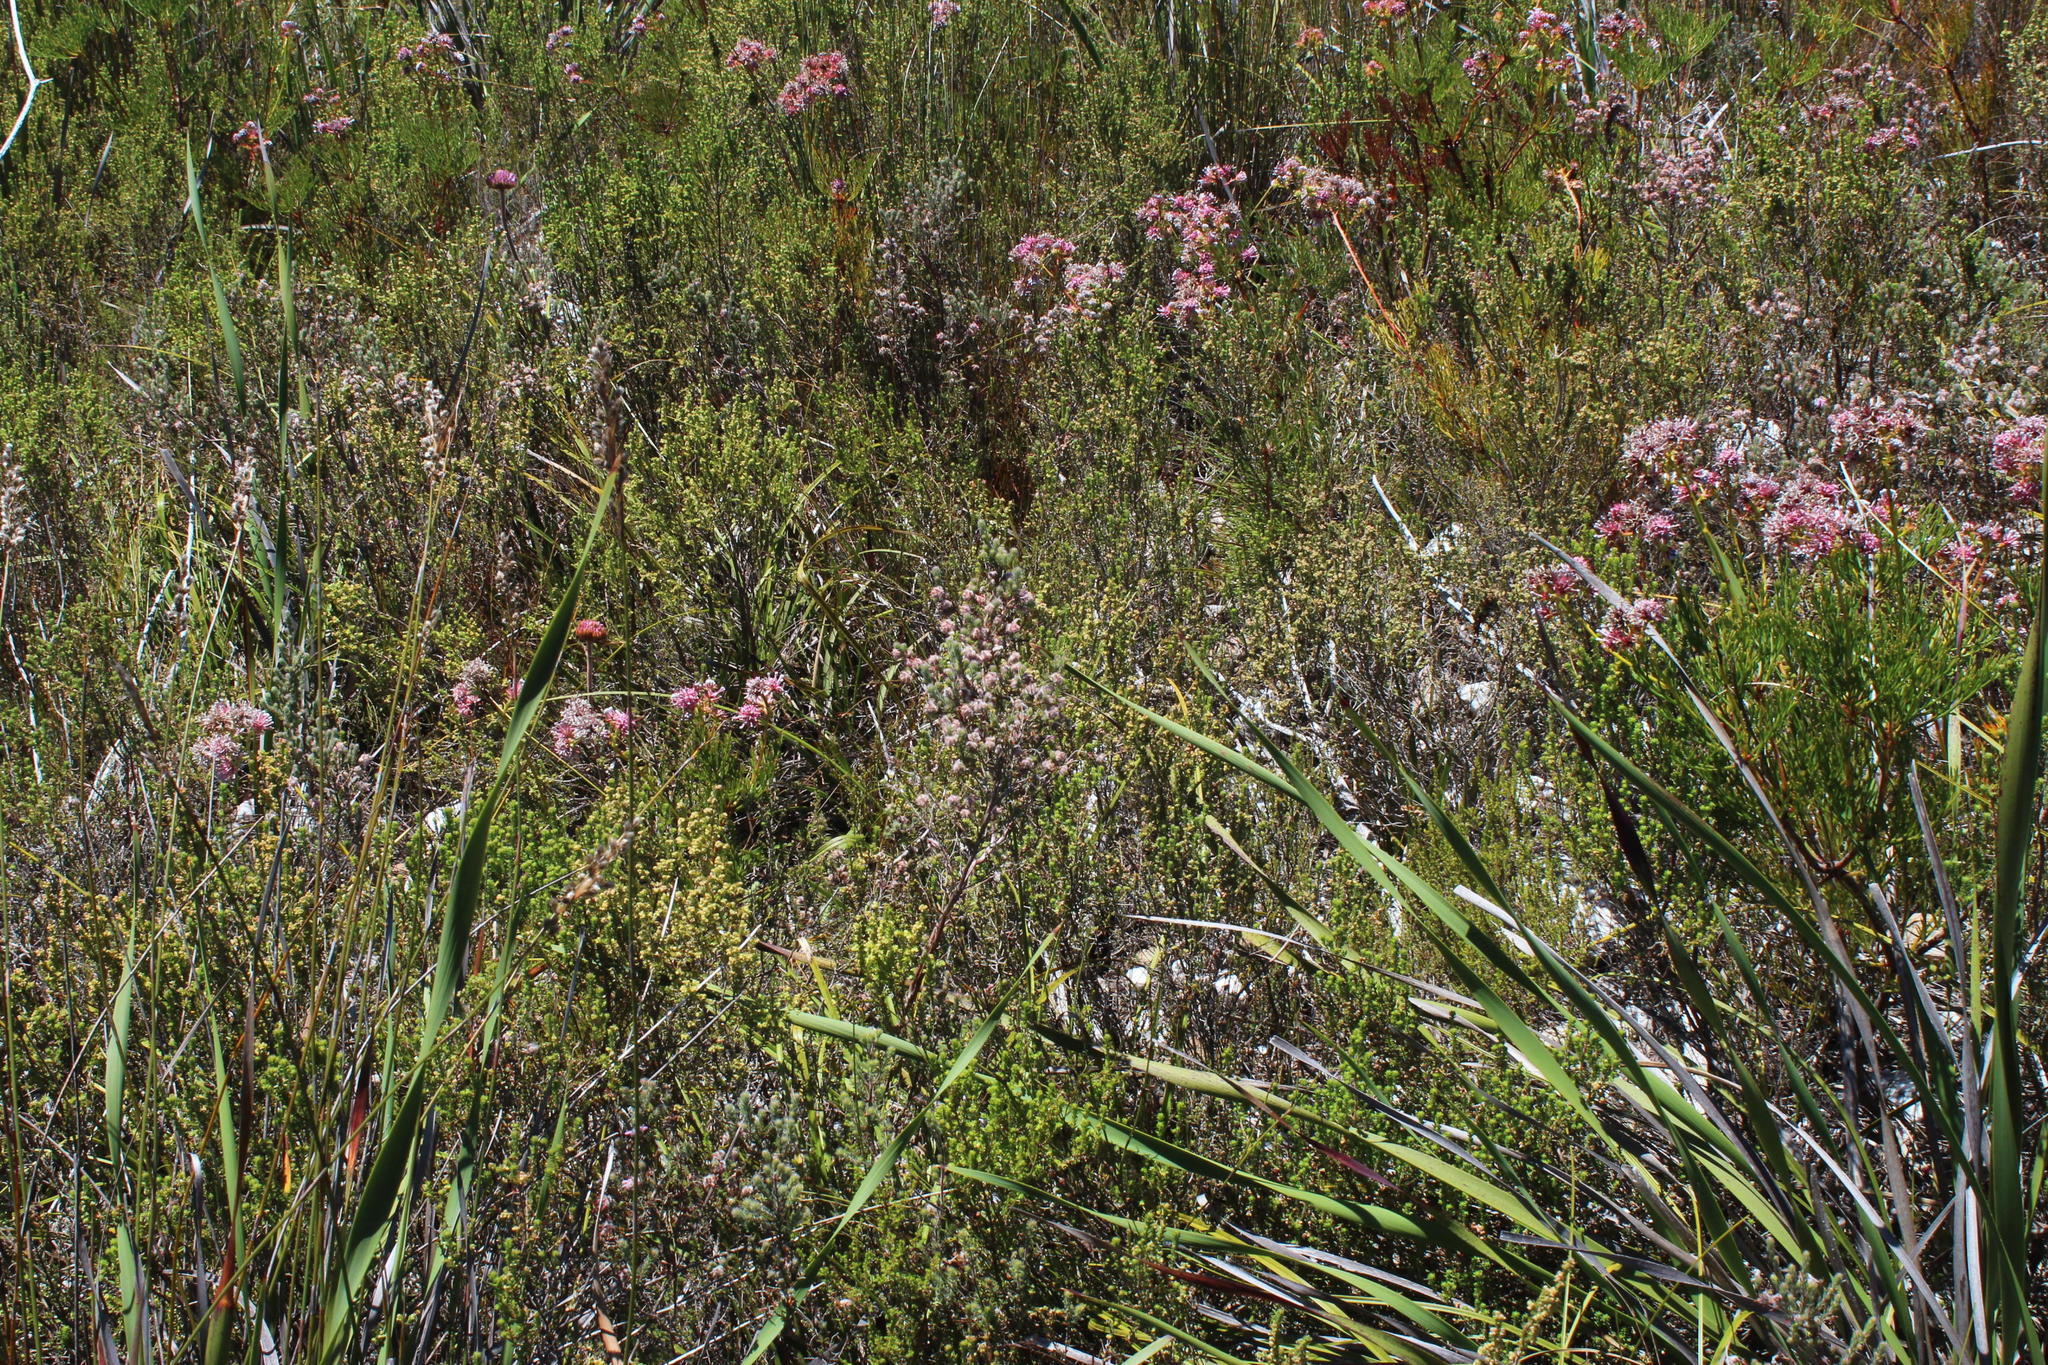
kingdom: Plantae
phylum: Tracheophyta
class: Magnoliopsida
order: Ericales
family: Ericaceae
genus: Erica
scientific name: Erica eriocephala
